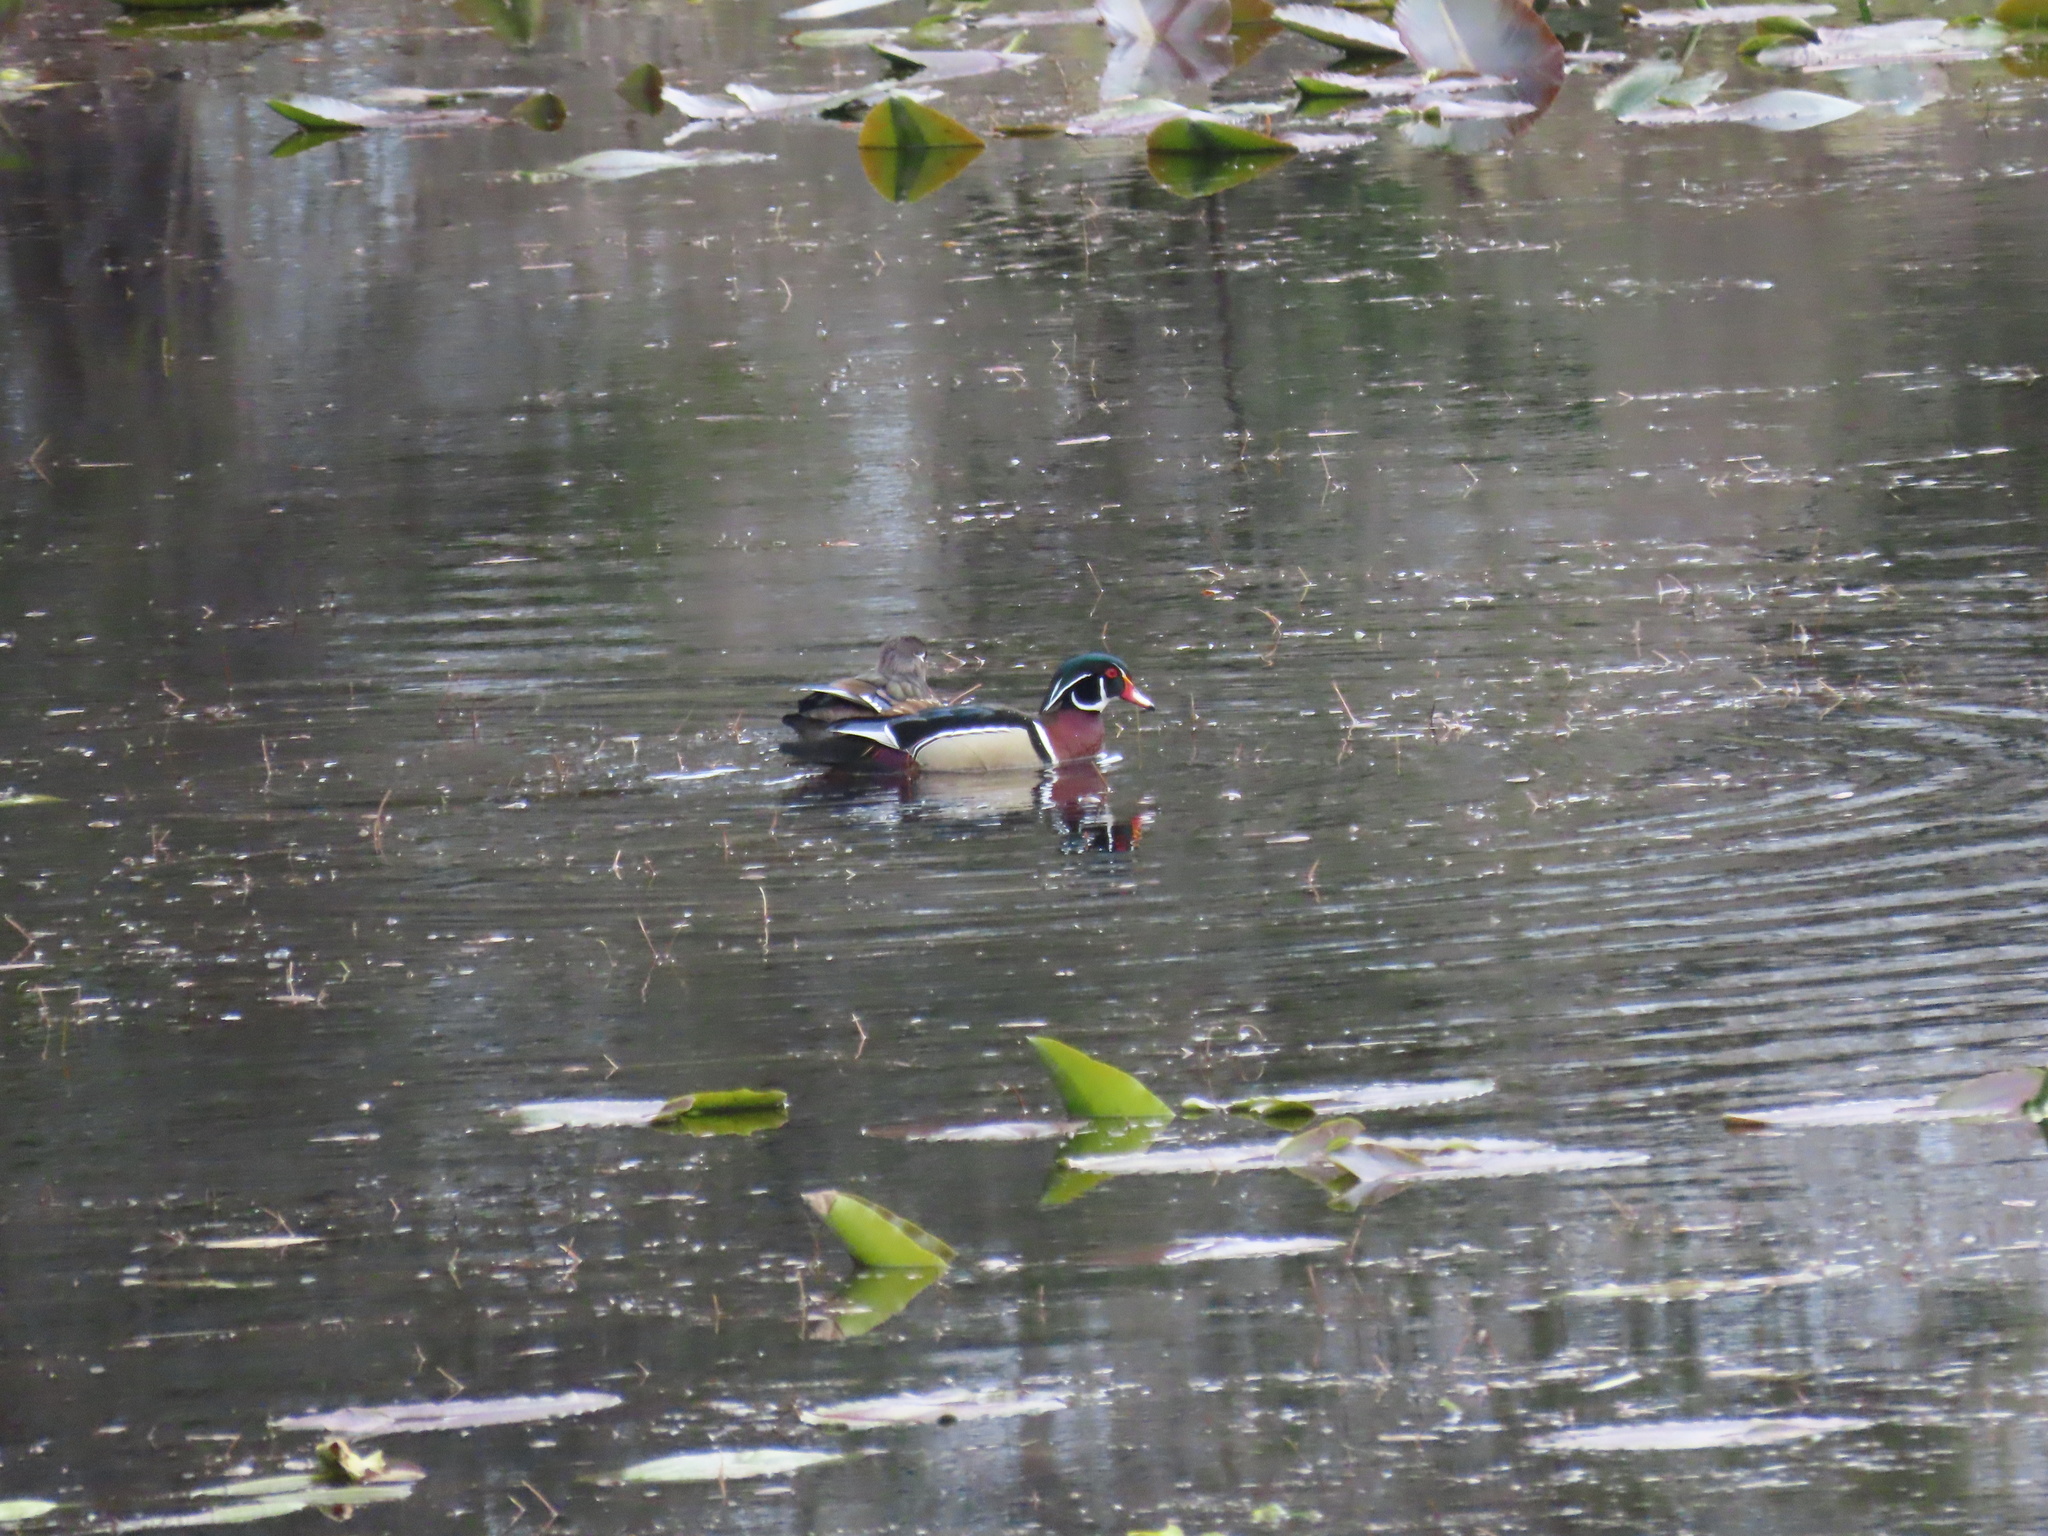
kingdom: Animalia
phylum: Chordata
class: Aves
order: Anseriformes
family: Anatidae
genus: Aix
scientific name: Aix sponsa
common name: Wood duck
